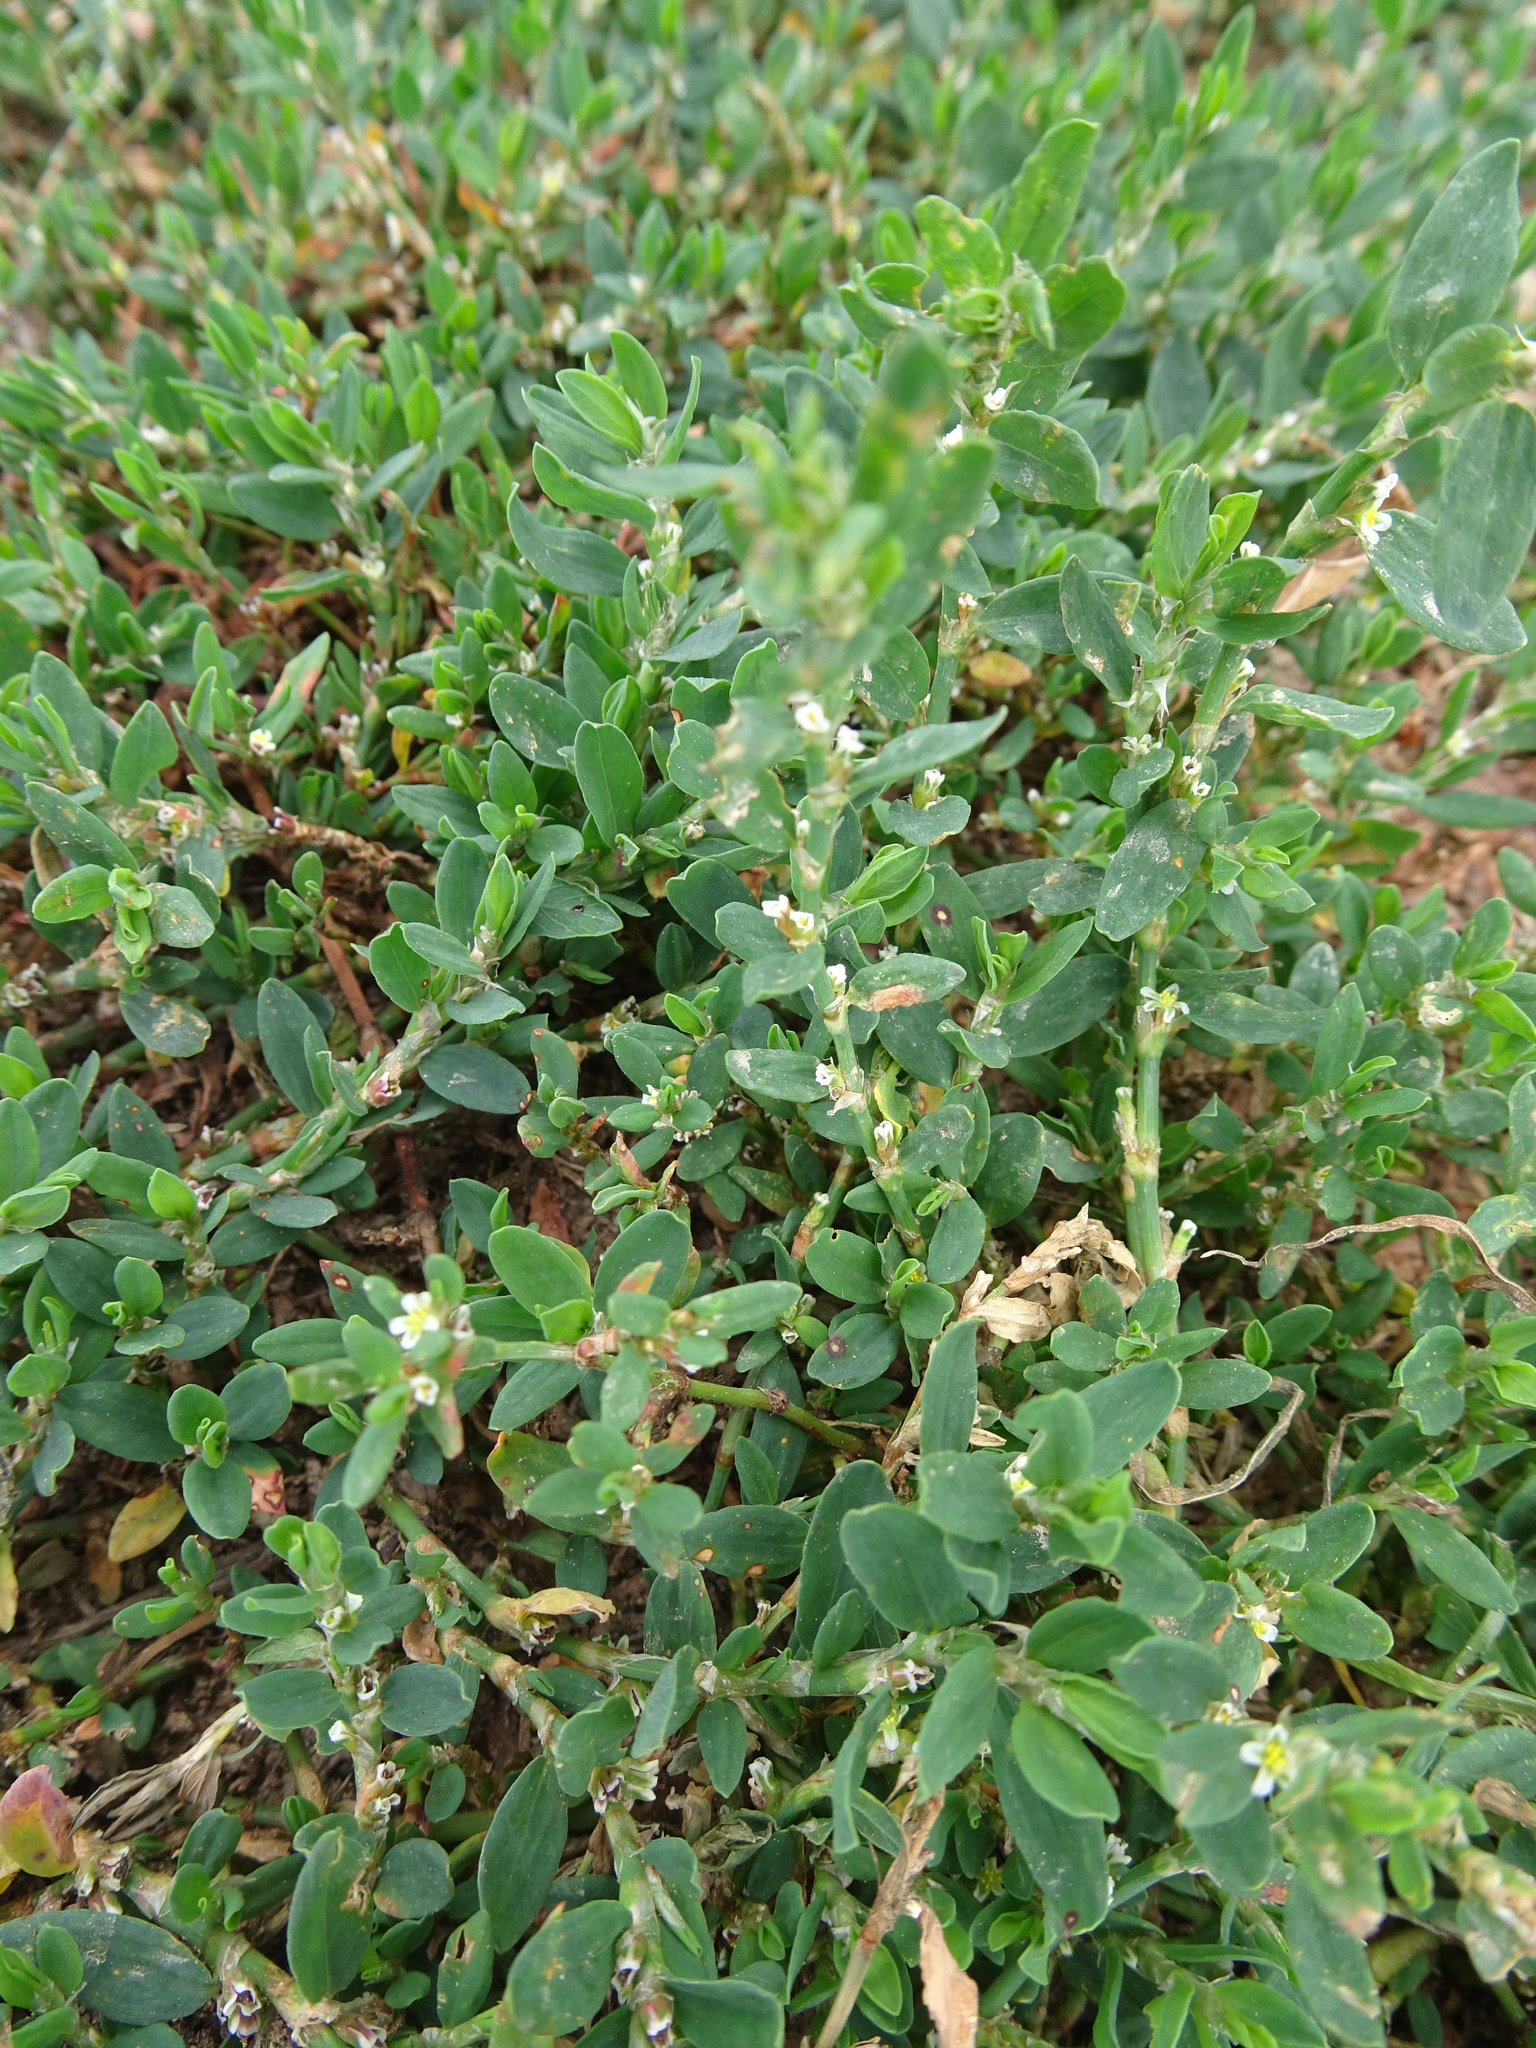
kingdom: Plantae
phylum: Tracheophyta
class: Magnoliopsida
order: Caryophyllales
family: Polygonaceae
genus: Polygonum
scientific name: Polygonum aviculare
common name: Prostrate knotweed
